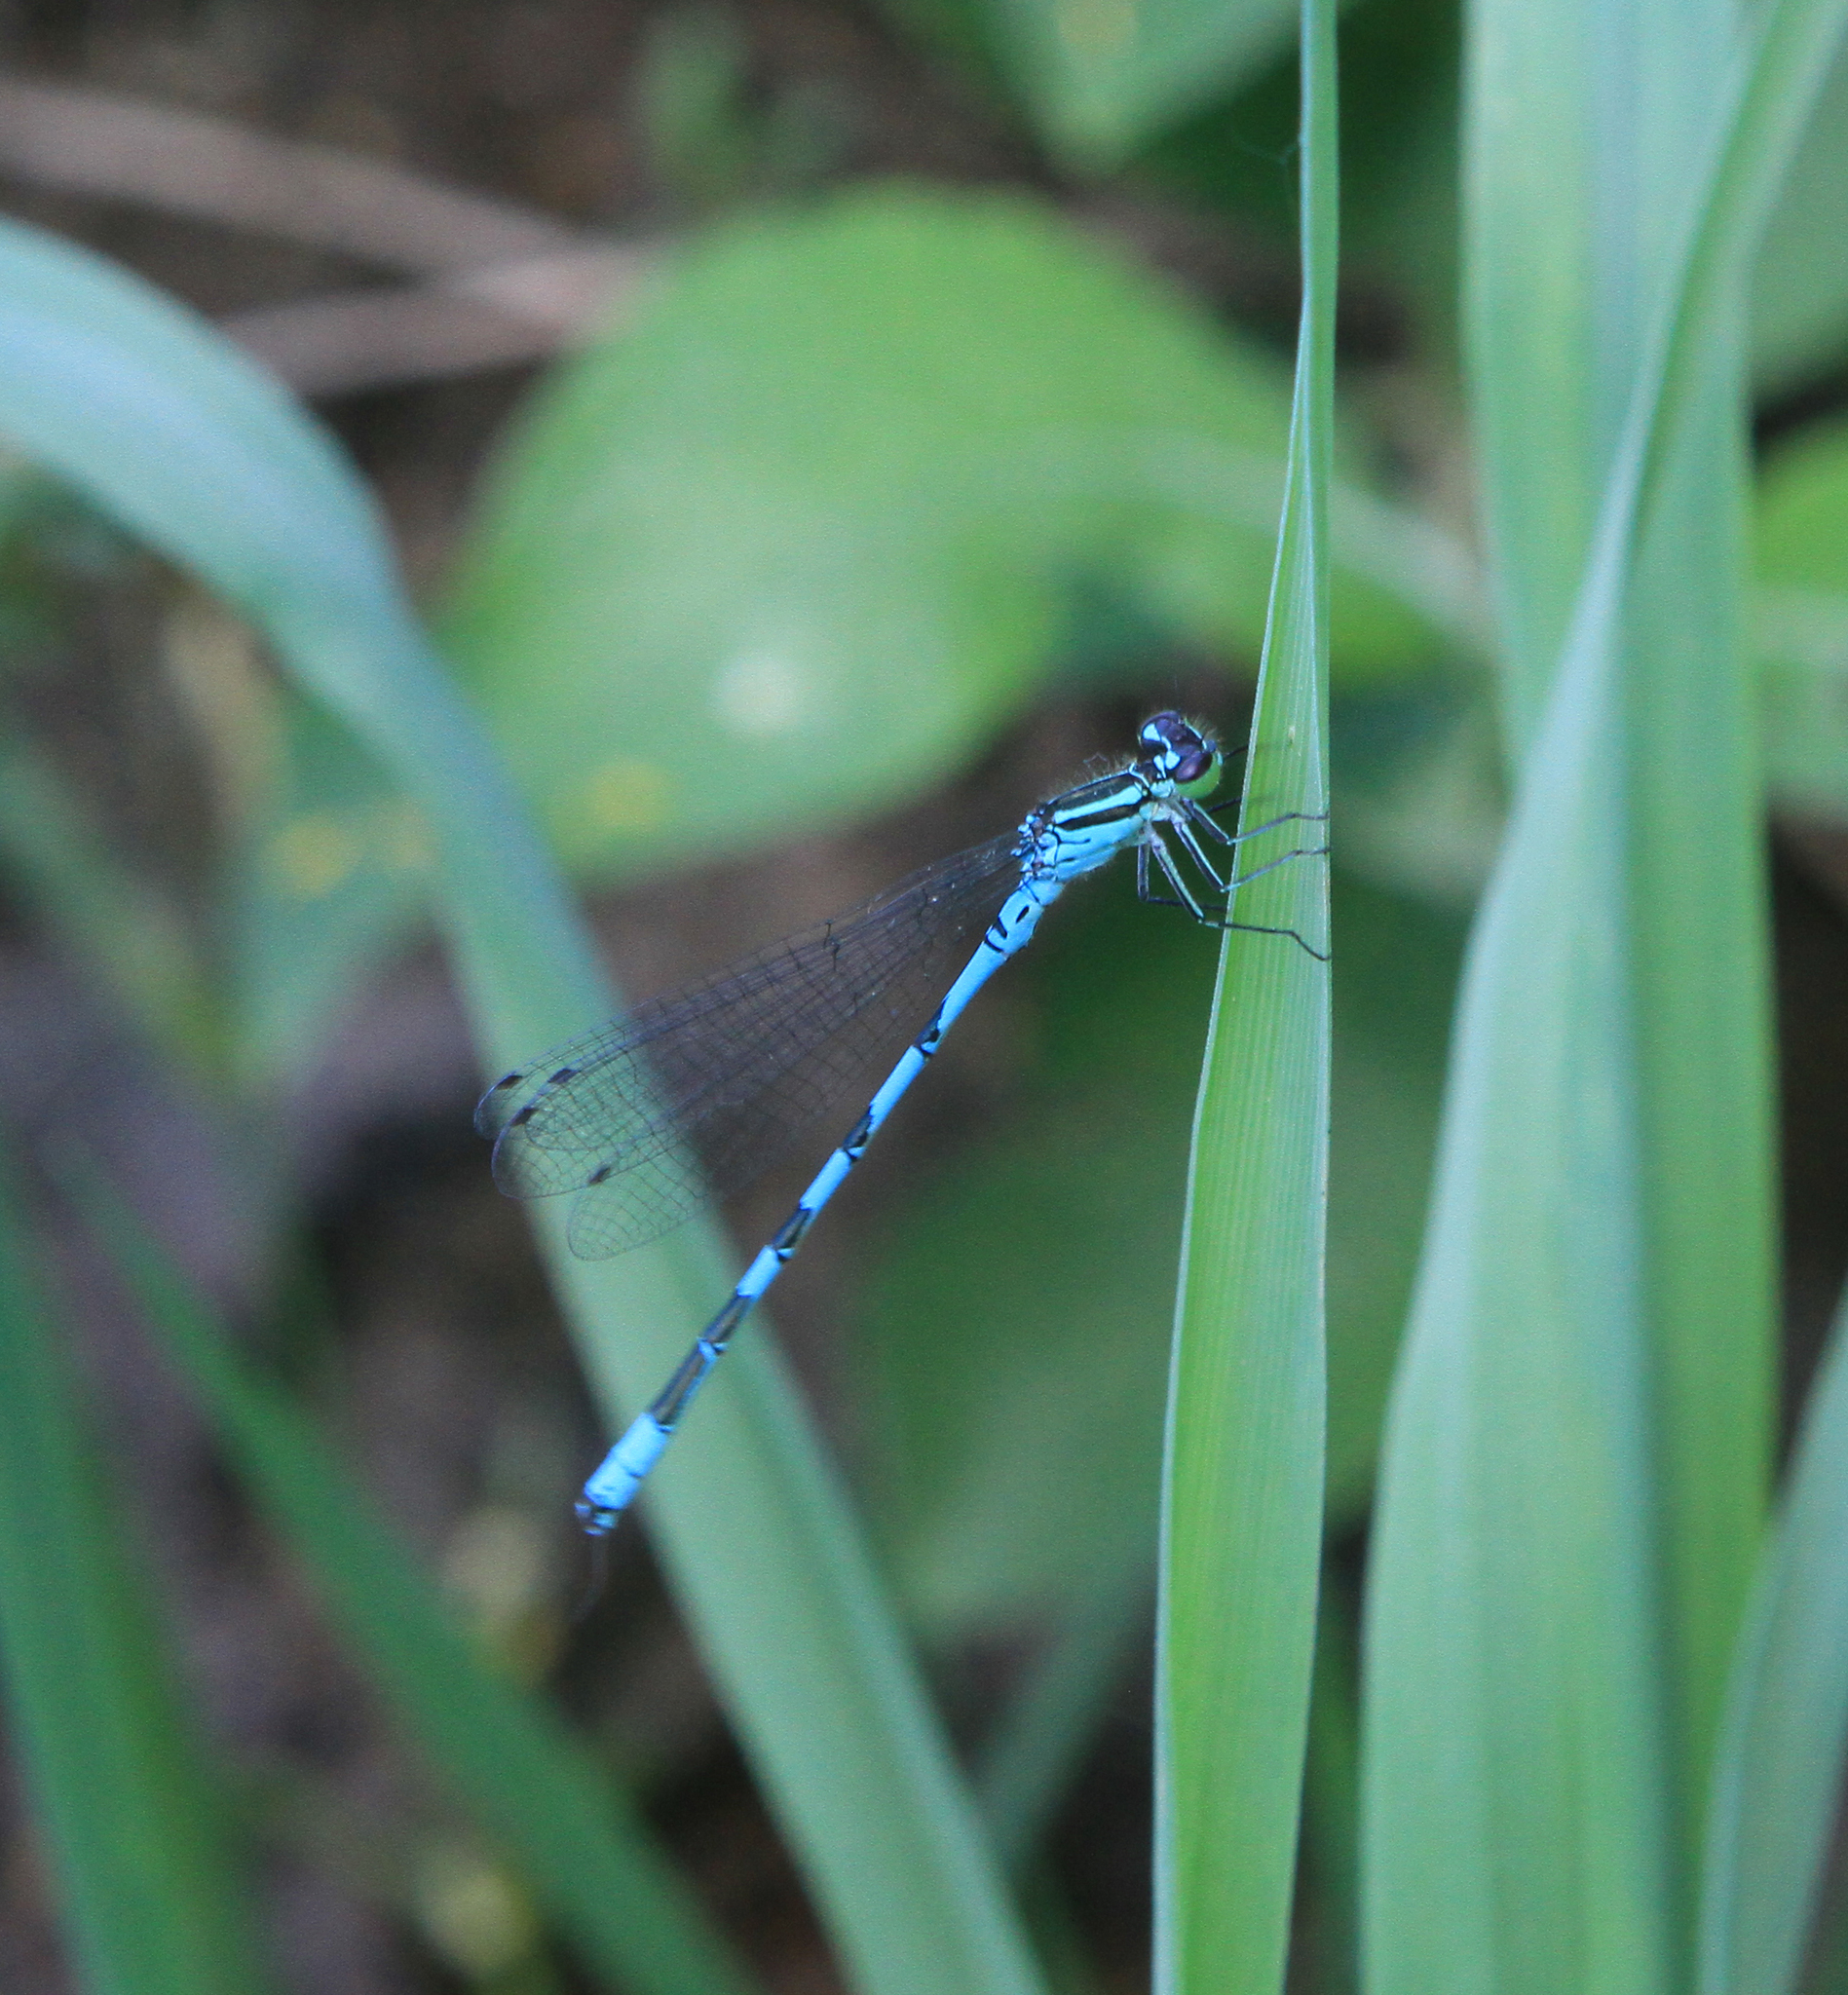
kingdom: Animalia
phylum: Arthropoda
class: Insecta
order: Odonata
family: Coenagrionidae
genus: Coenagrion
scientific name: Coenagrion hastulatum
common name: Spearhead bluet
